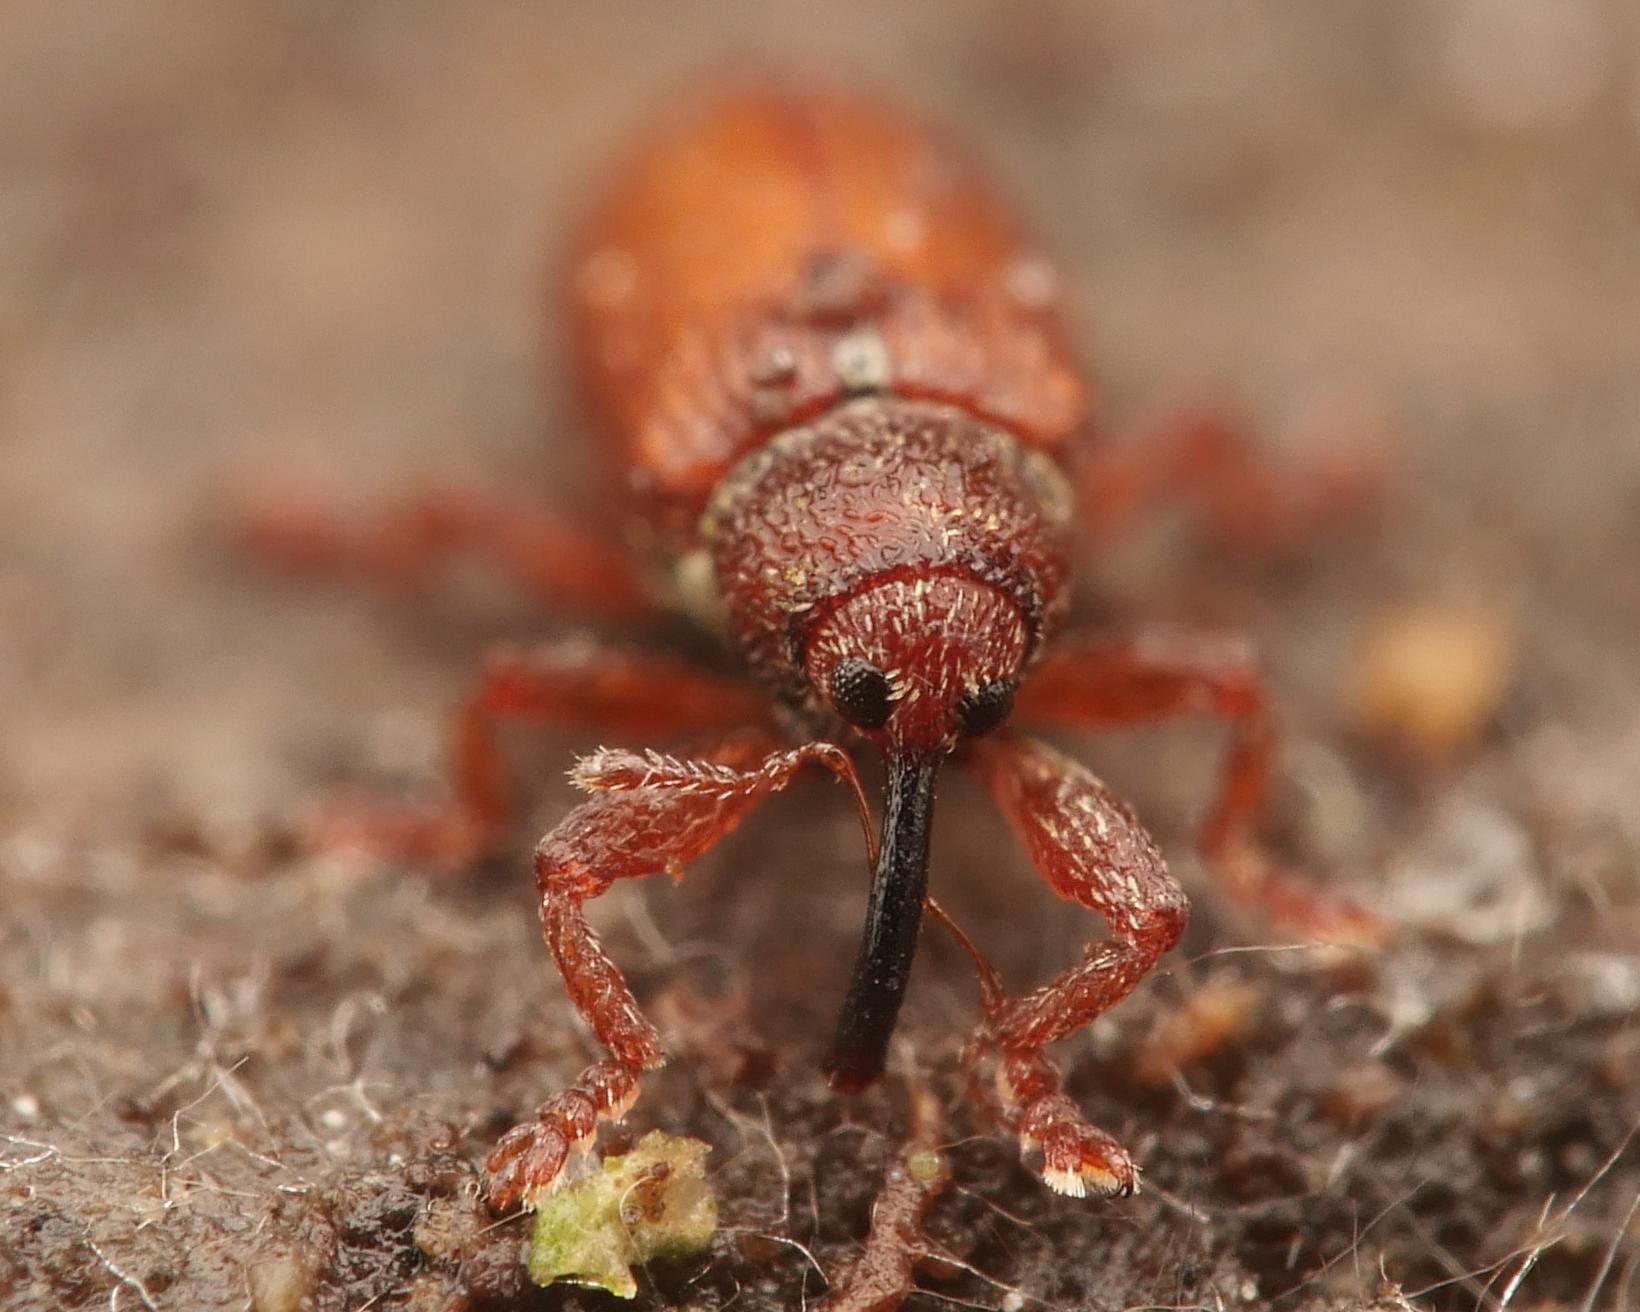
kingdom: Animalia
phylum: Arthropoda
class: Insecta
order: Coleoptera
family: Curculionidae
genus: Brachonyx
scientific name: Brachonyx pineti
